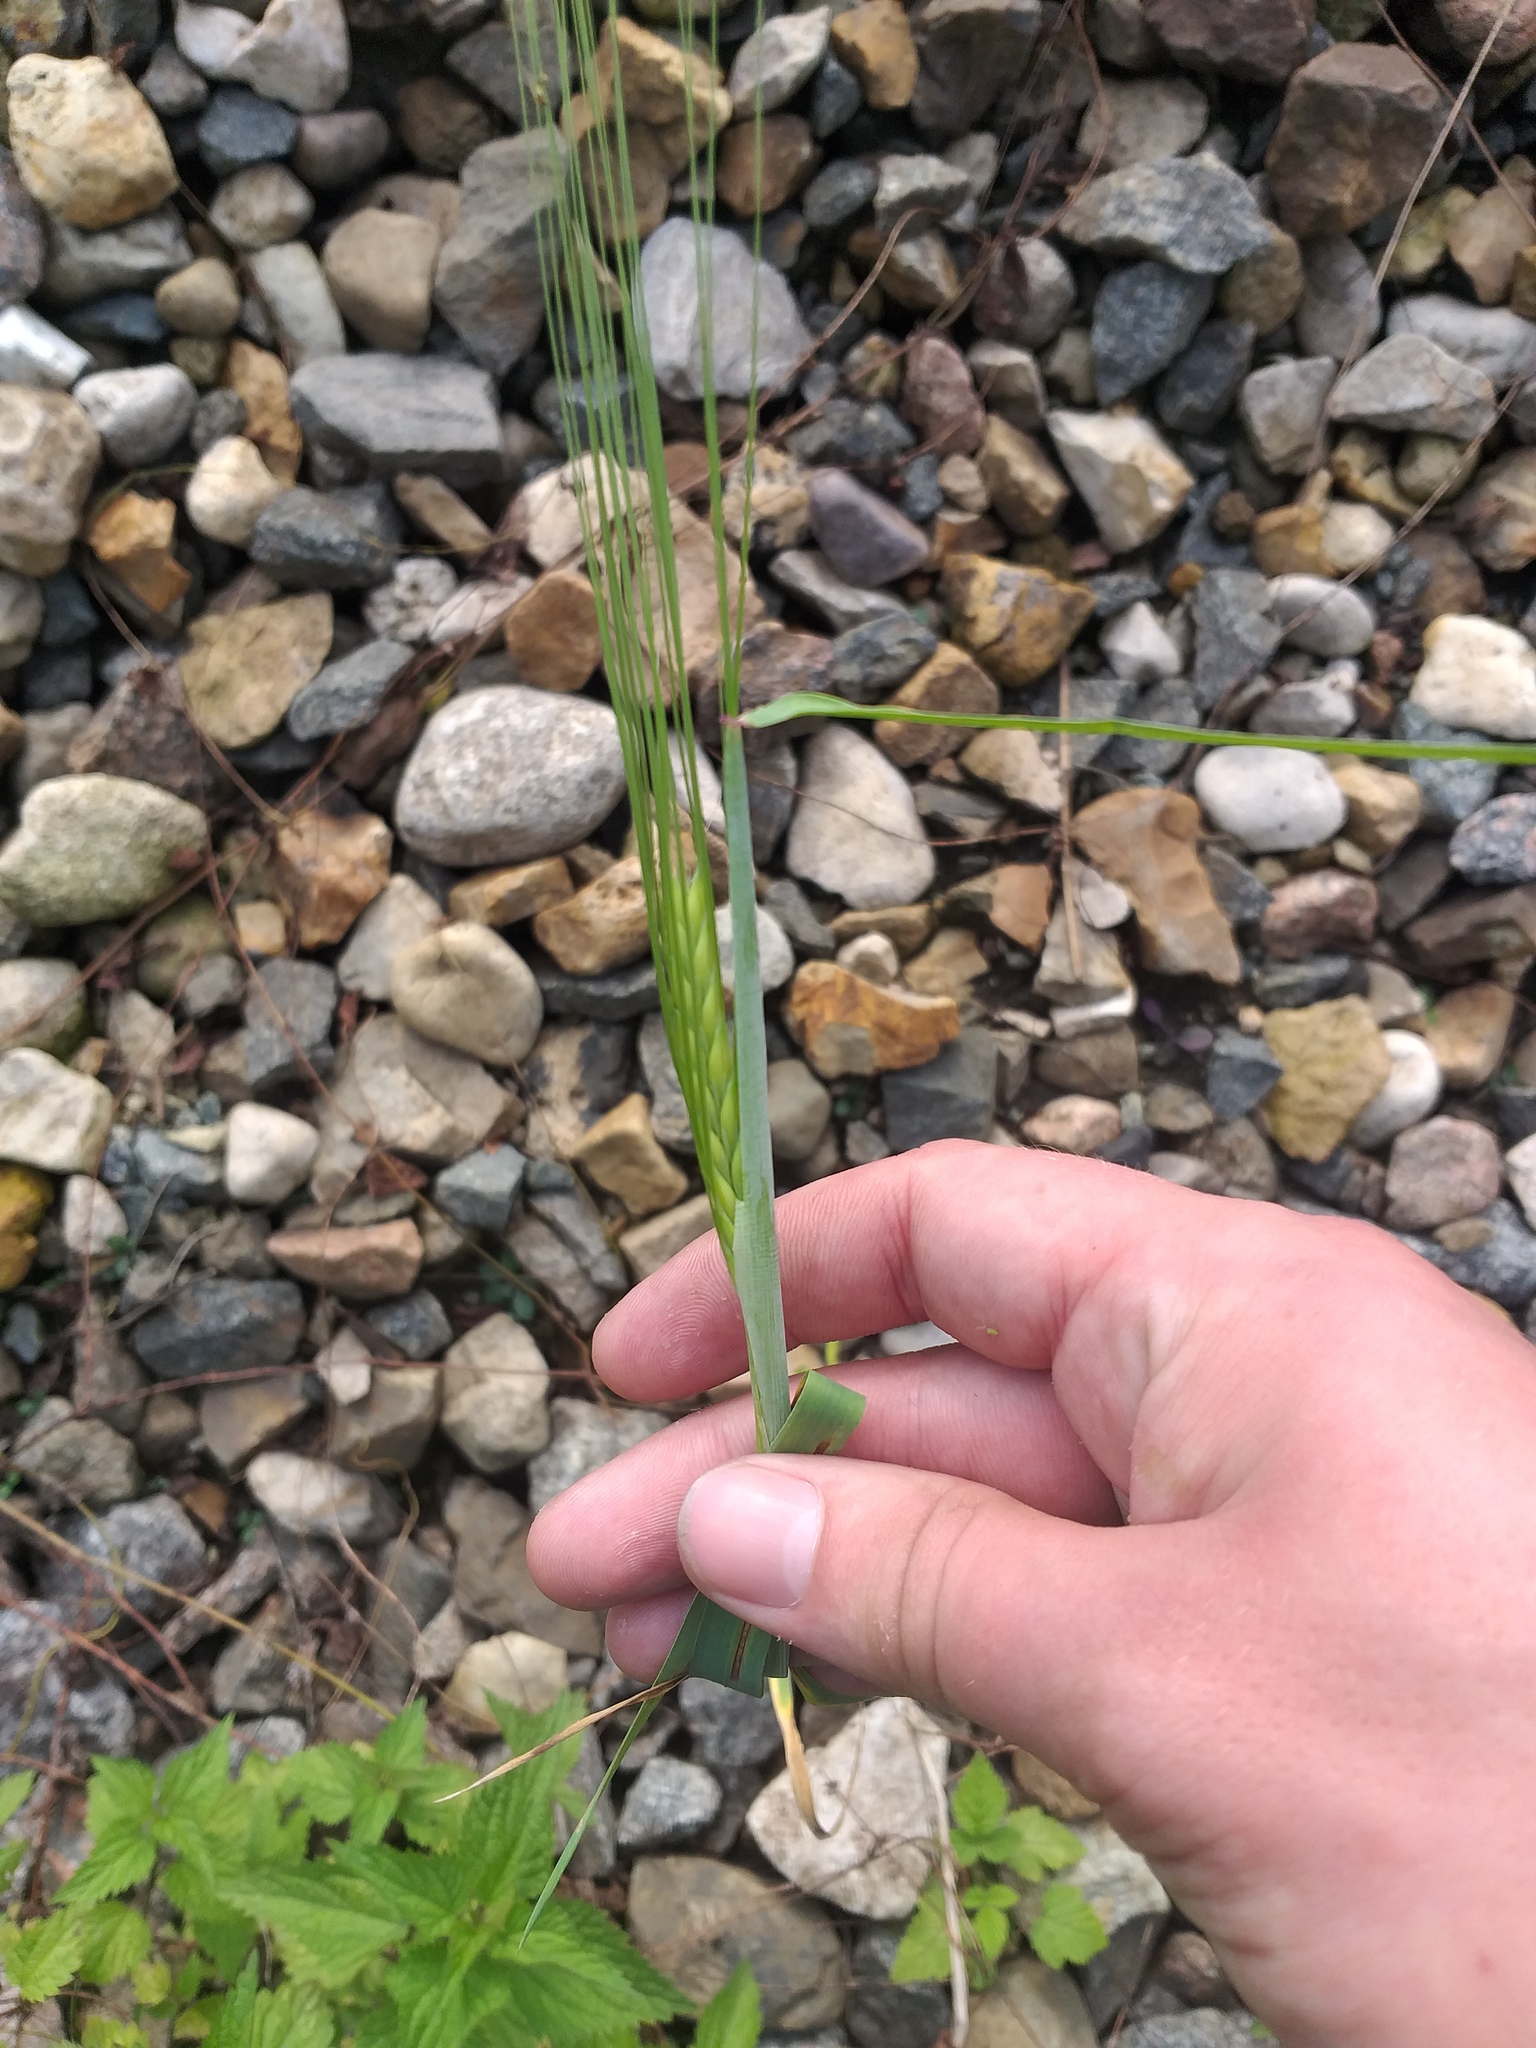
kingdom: Plantae
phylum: Tracheophyta
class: Liliopsida
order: Poales
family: Poaceae
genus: Secale
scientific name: Secale cereale
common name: Rye
